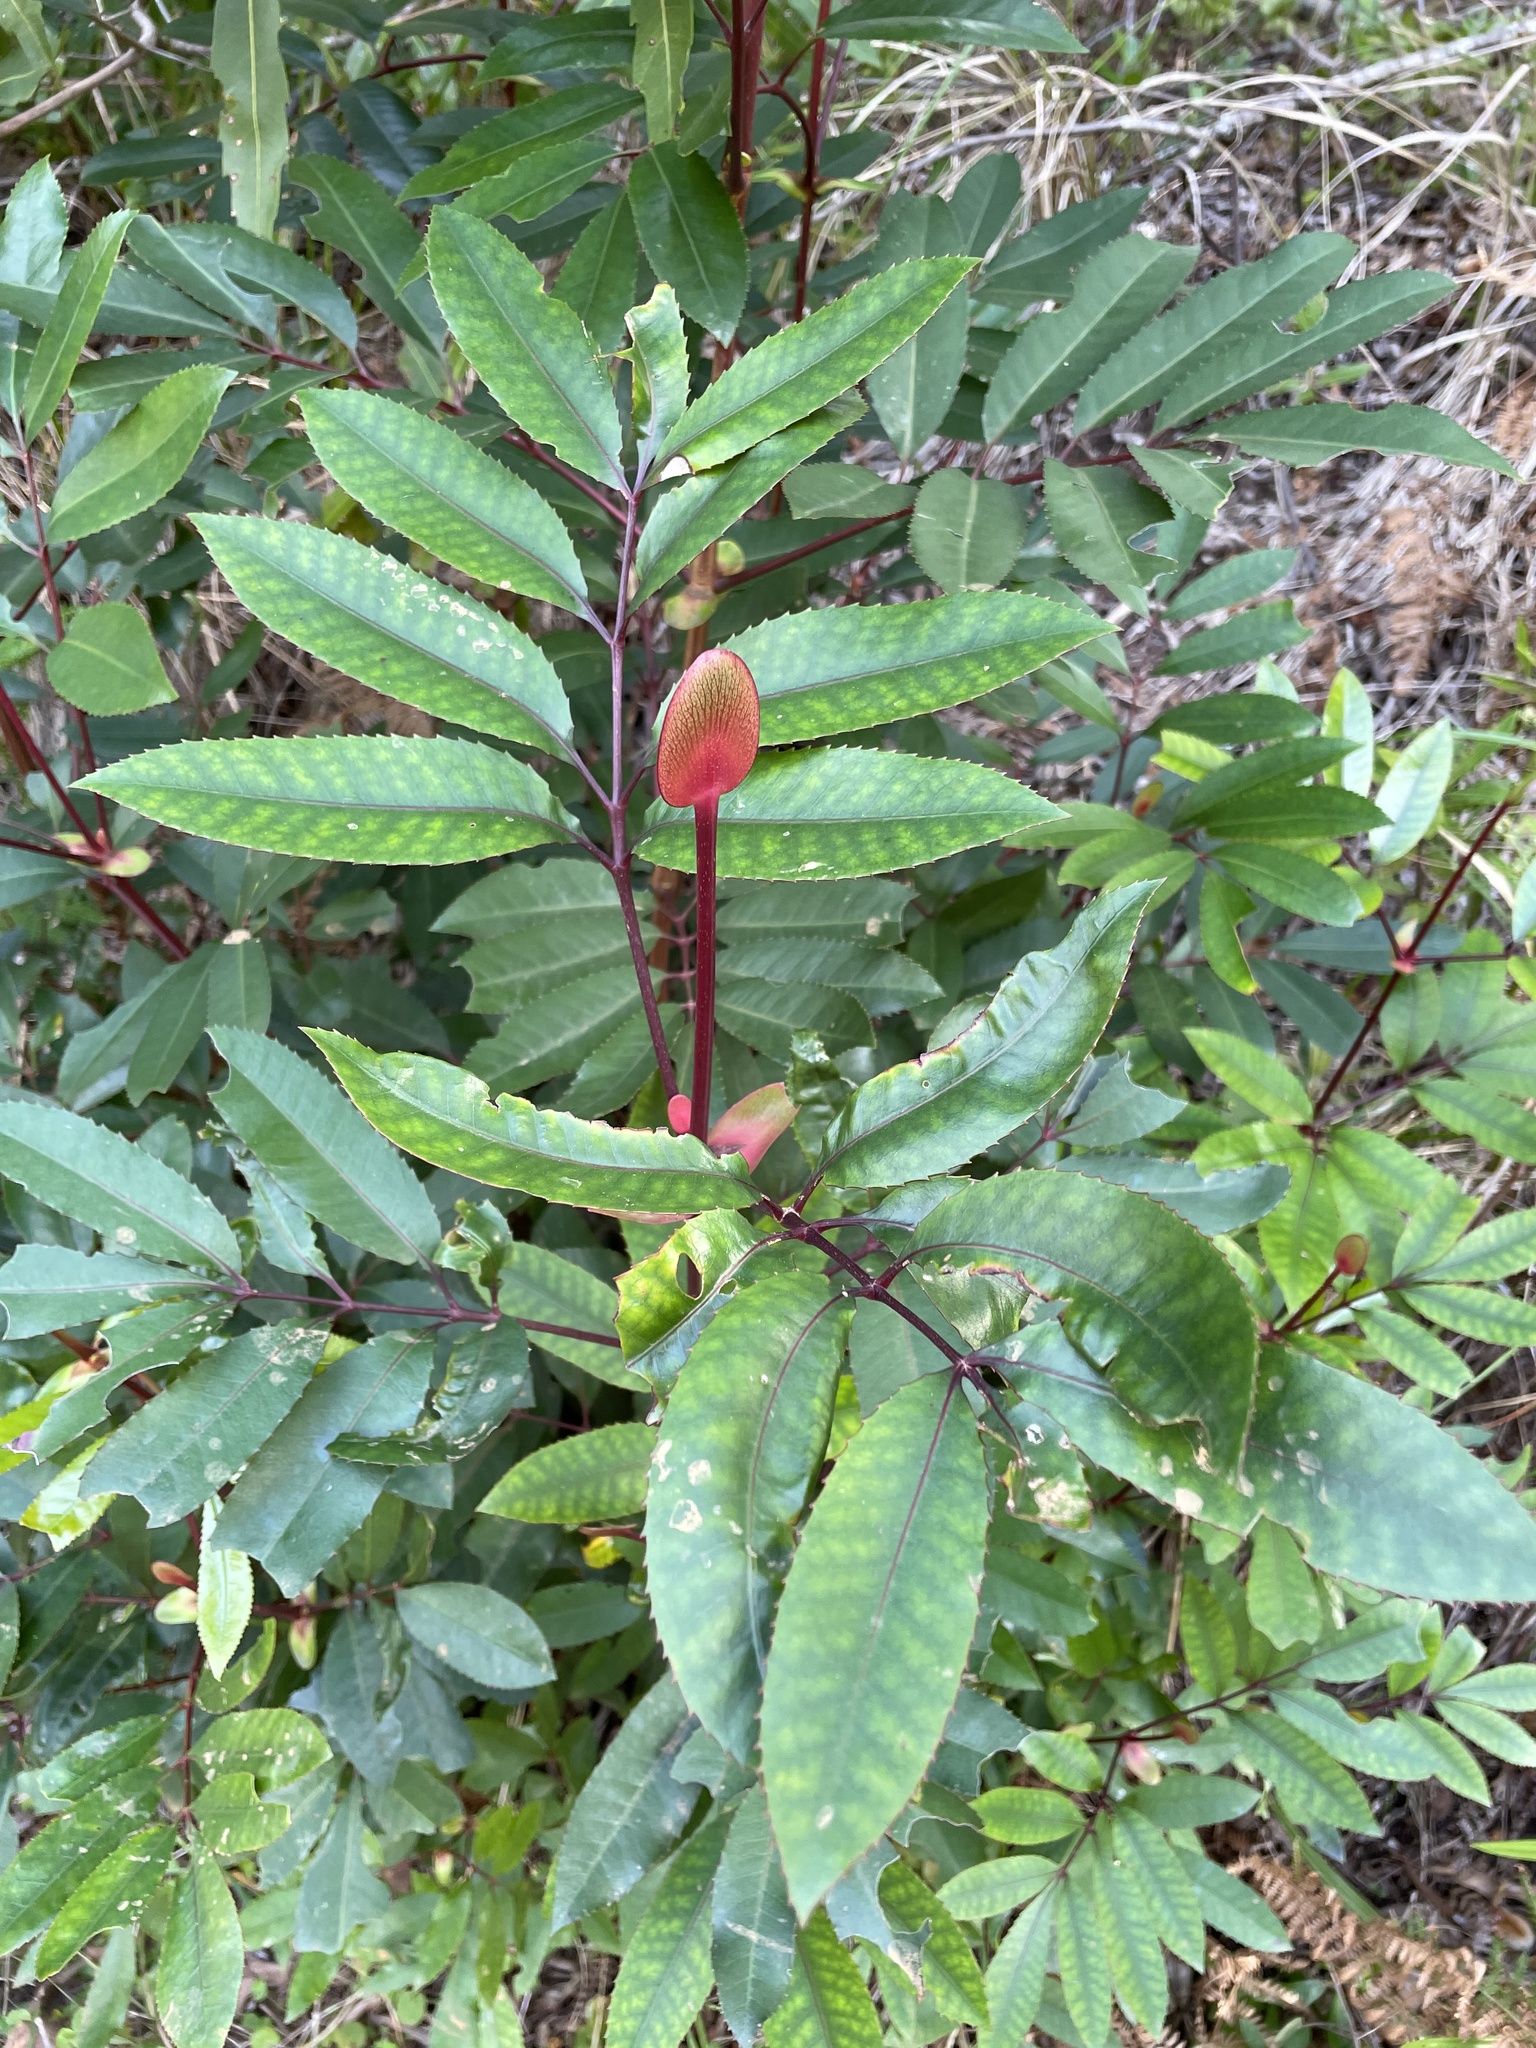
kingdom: Plantae
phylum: Tracheophyta
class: Magnoliopsida
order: Oxalidales
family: Cunoniaceae
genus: Cunonia
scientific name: Cunonia capensis
